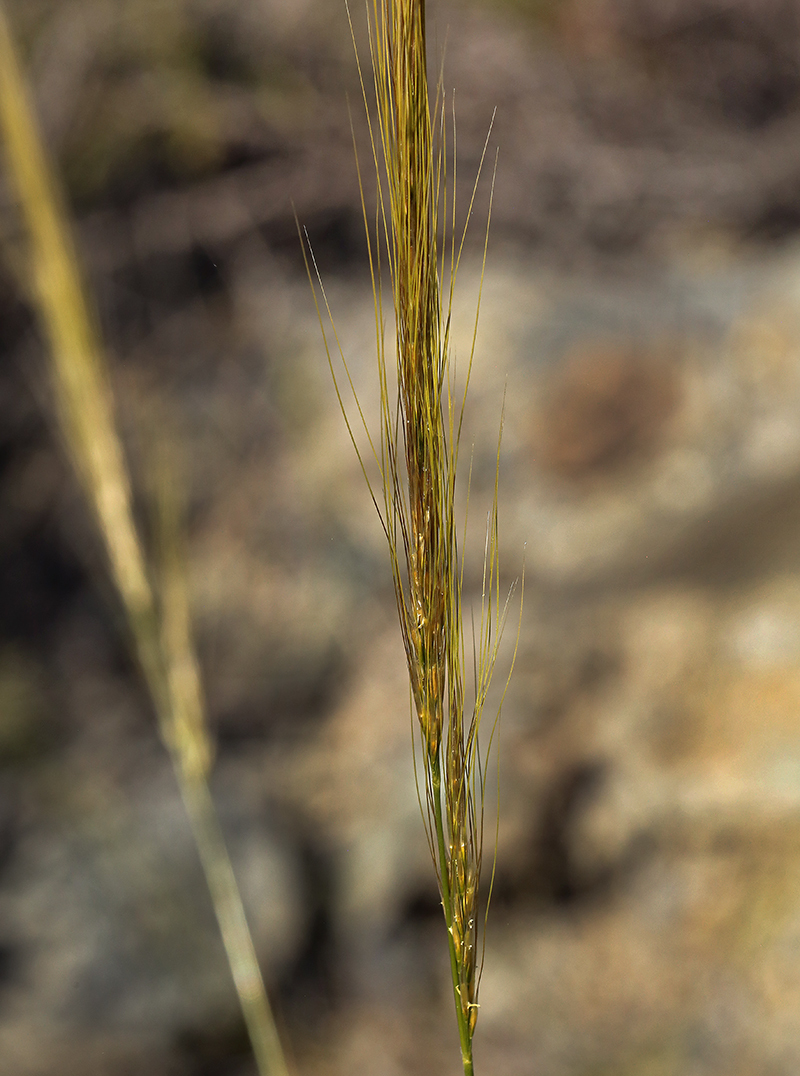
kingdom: Plantae
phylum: Tracheophyta
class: Liliopsida
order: Poales
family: Poaceae
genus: Eriocoma
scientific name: Eriocoma arida
